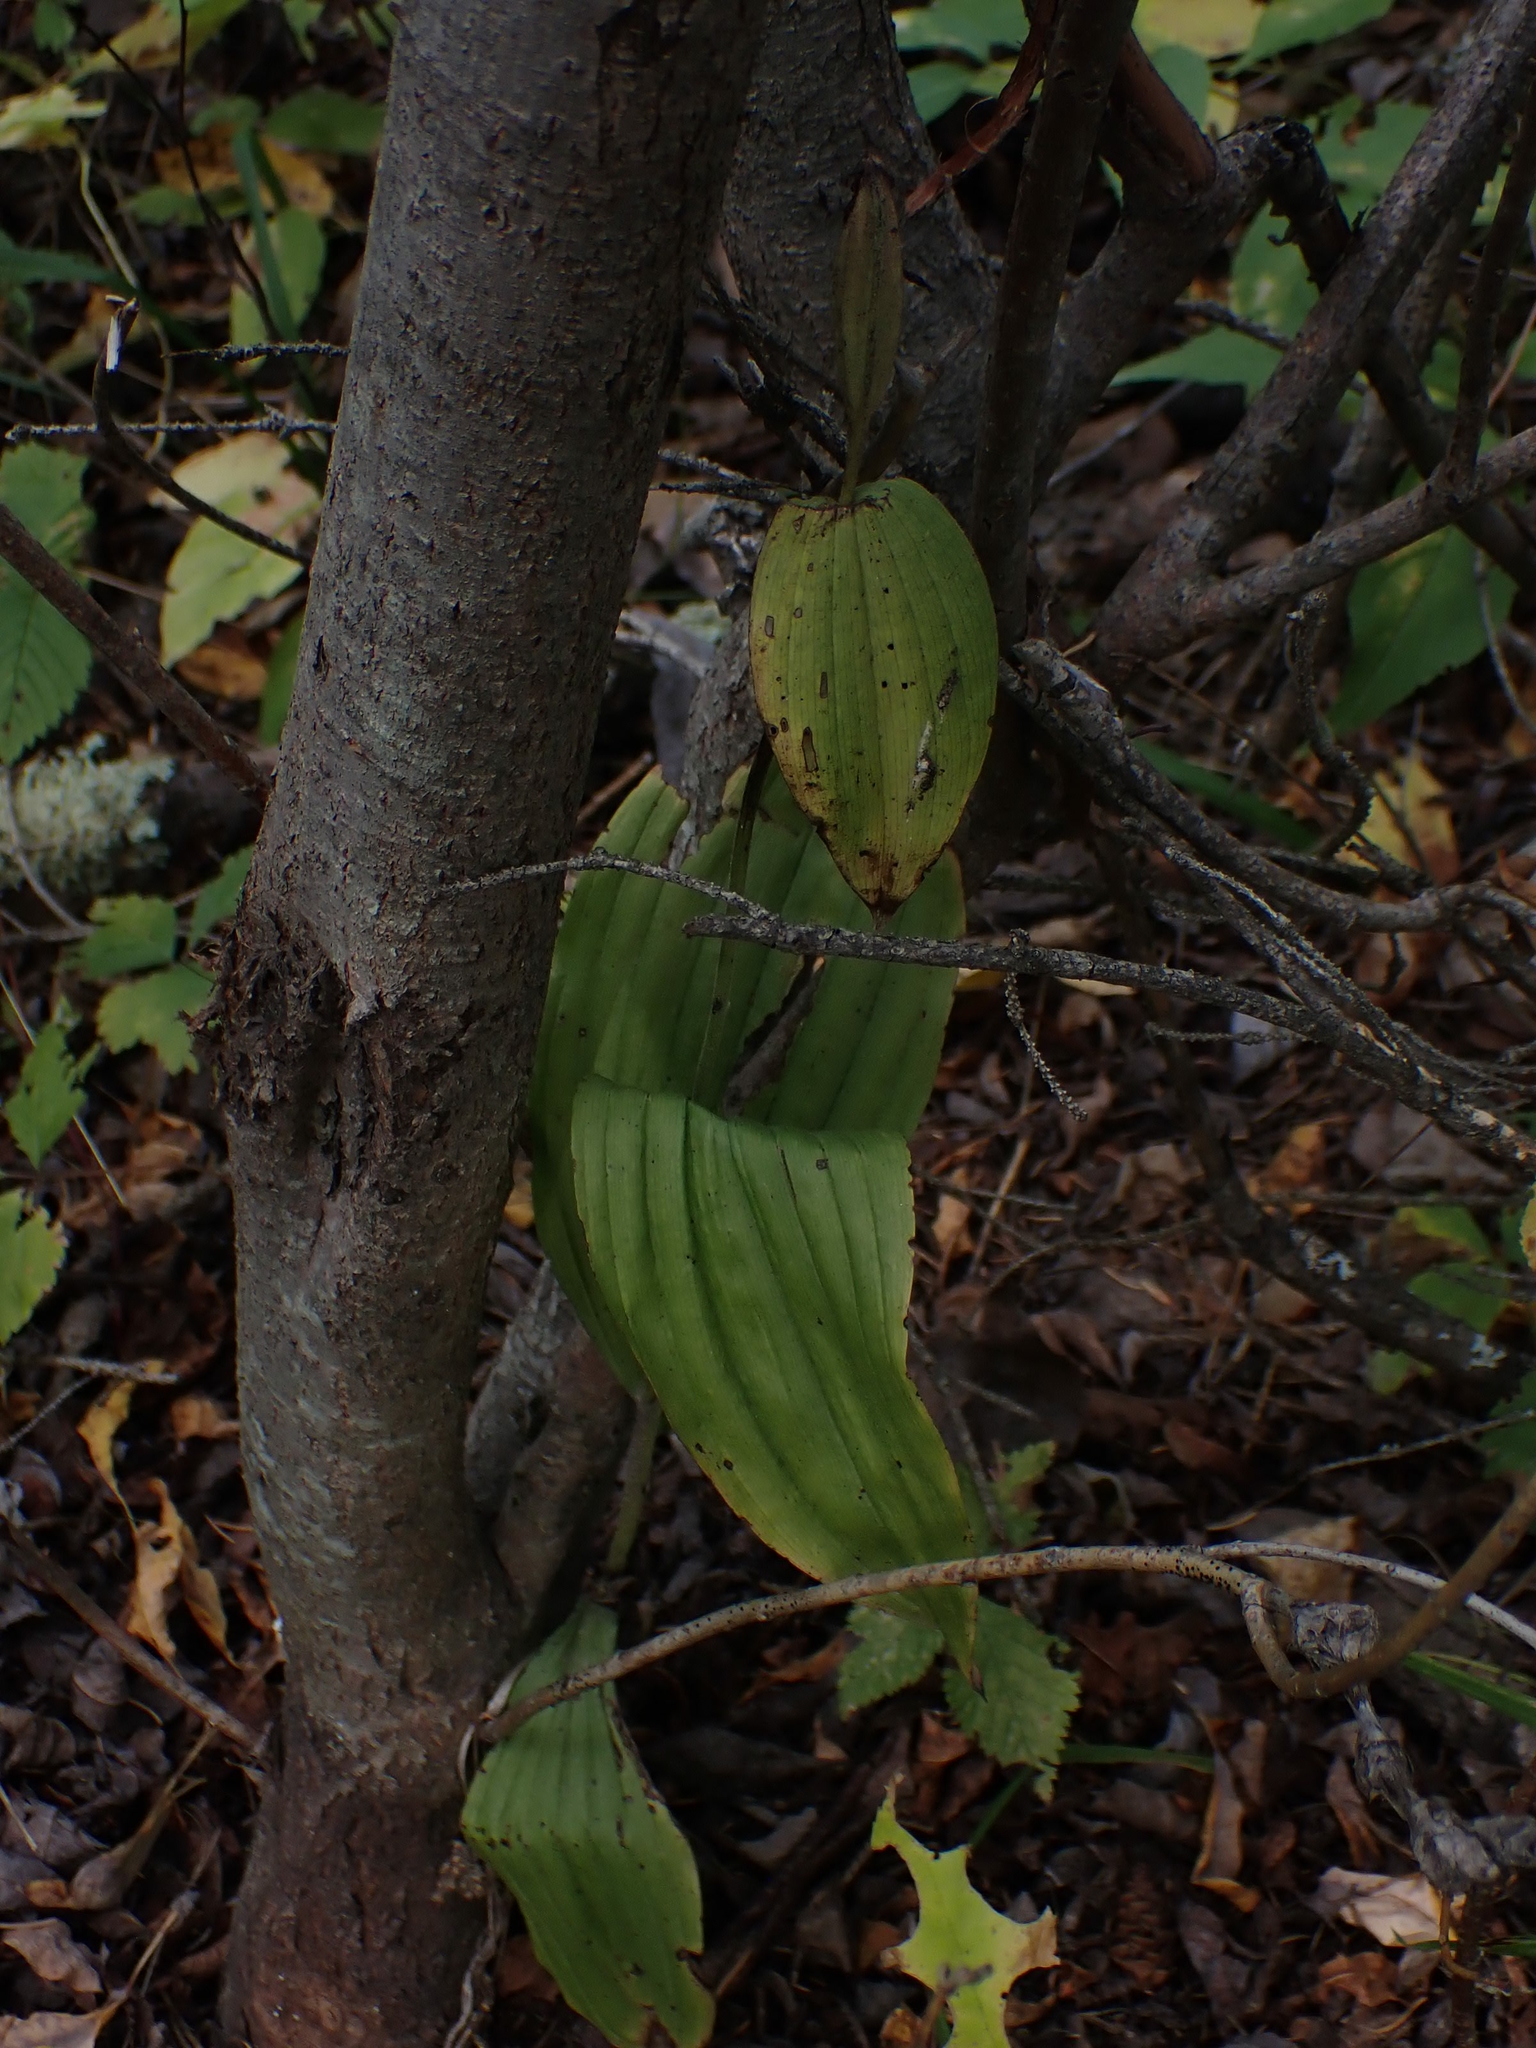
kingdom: Plantae
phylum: Tracheophyta
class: Liliopsida
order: Asparagales
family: Orchidaceae
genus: Cypripedium
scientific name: Cypripedium reginae
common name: Queen lady's-slipper
